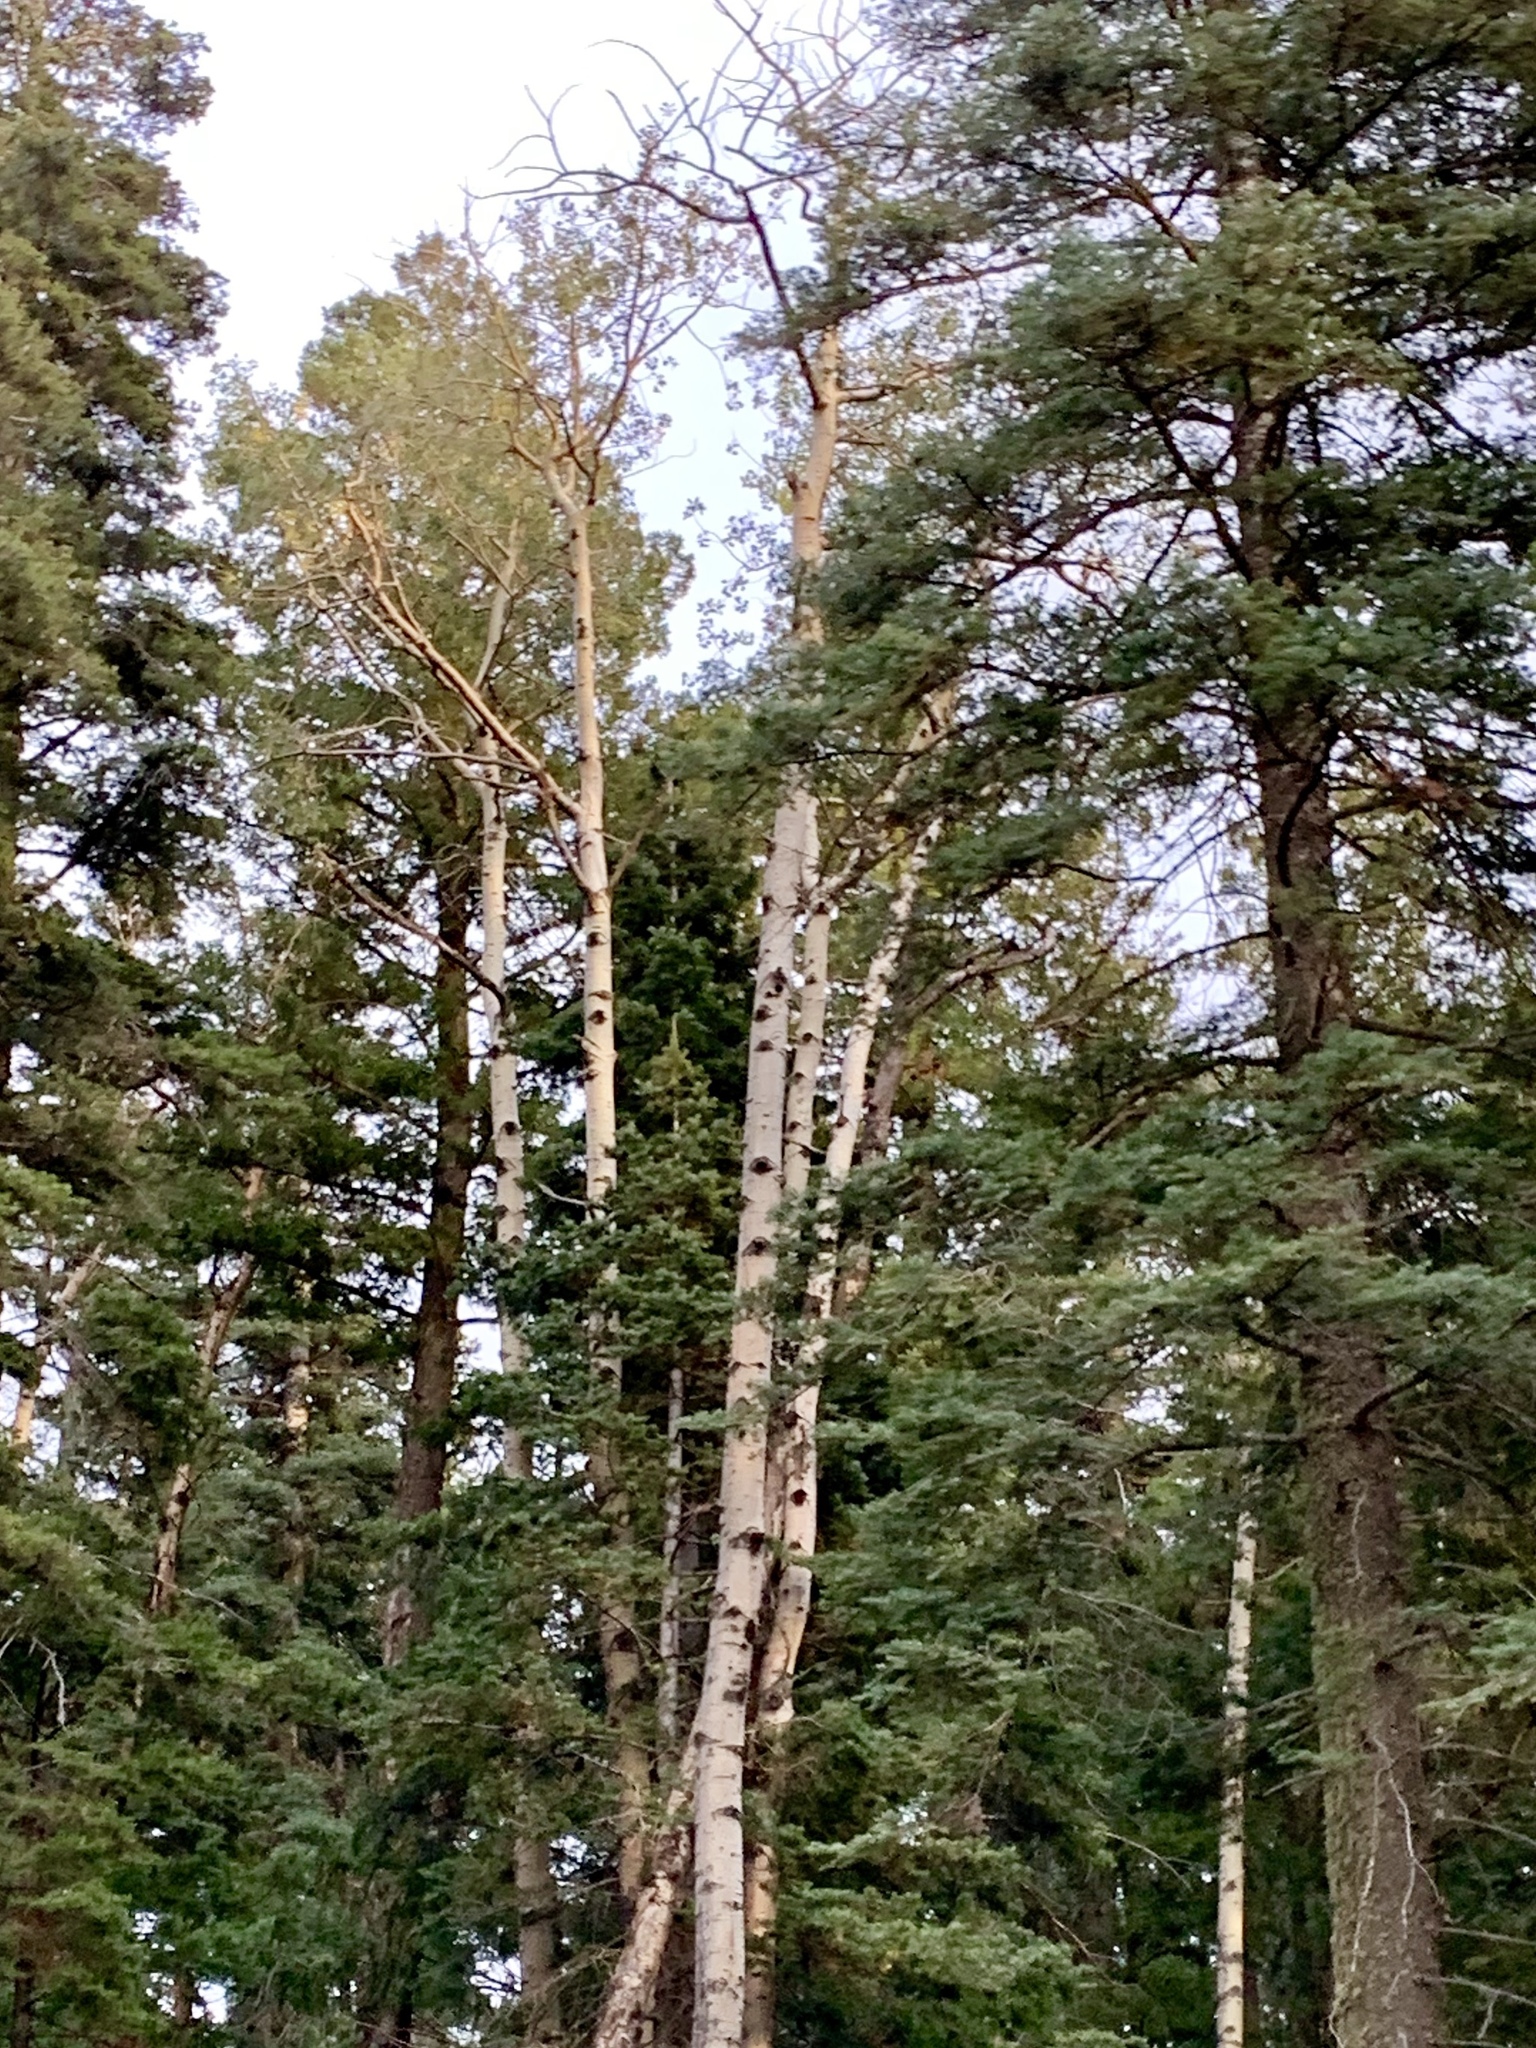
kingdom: Plantae
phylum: Tracheophyta
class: Magnoliopsida
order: Malpighiales
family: Salicaceae
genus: Populus
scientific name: Populus tremuloides
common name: Quaking aspen
